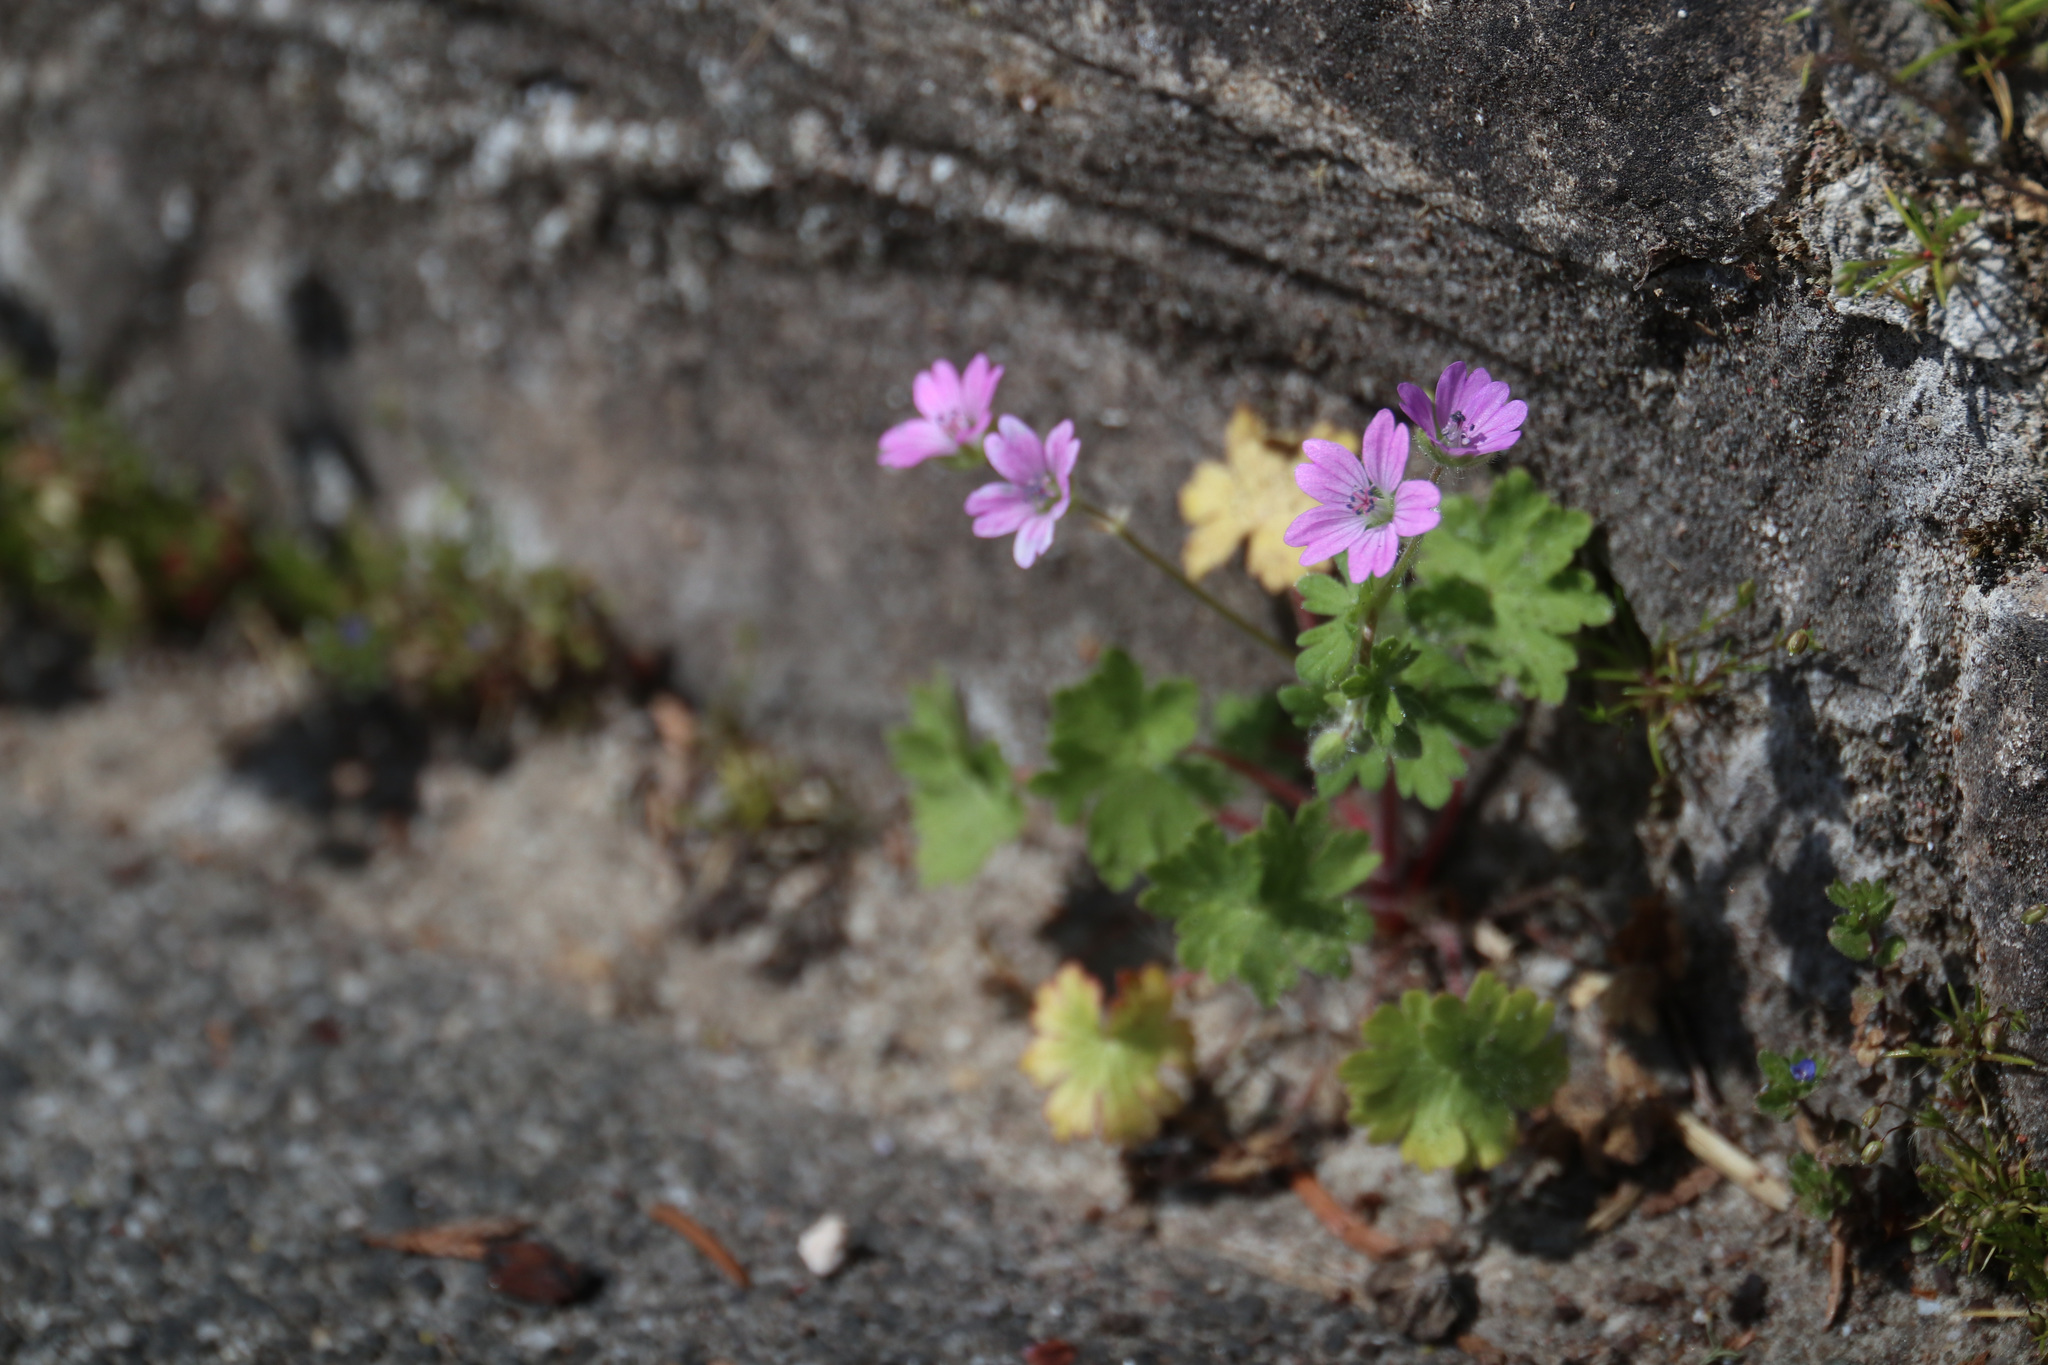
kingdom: Plantae
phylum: Tracheophyta
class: Magnoliopsida
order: Geraniales
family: Geraniaceae
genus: Geranium
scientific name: Geranium molle
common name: Dove's-foot crane's-bill
